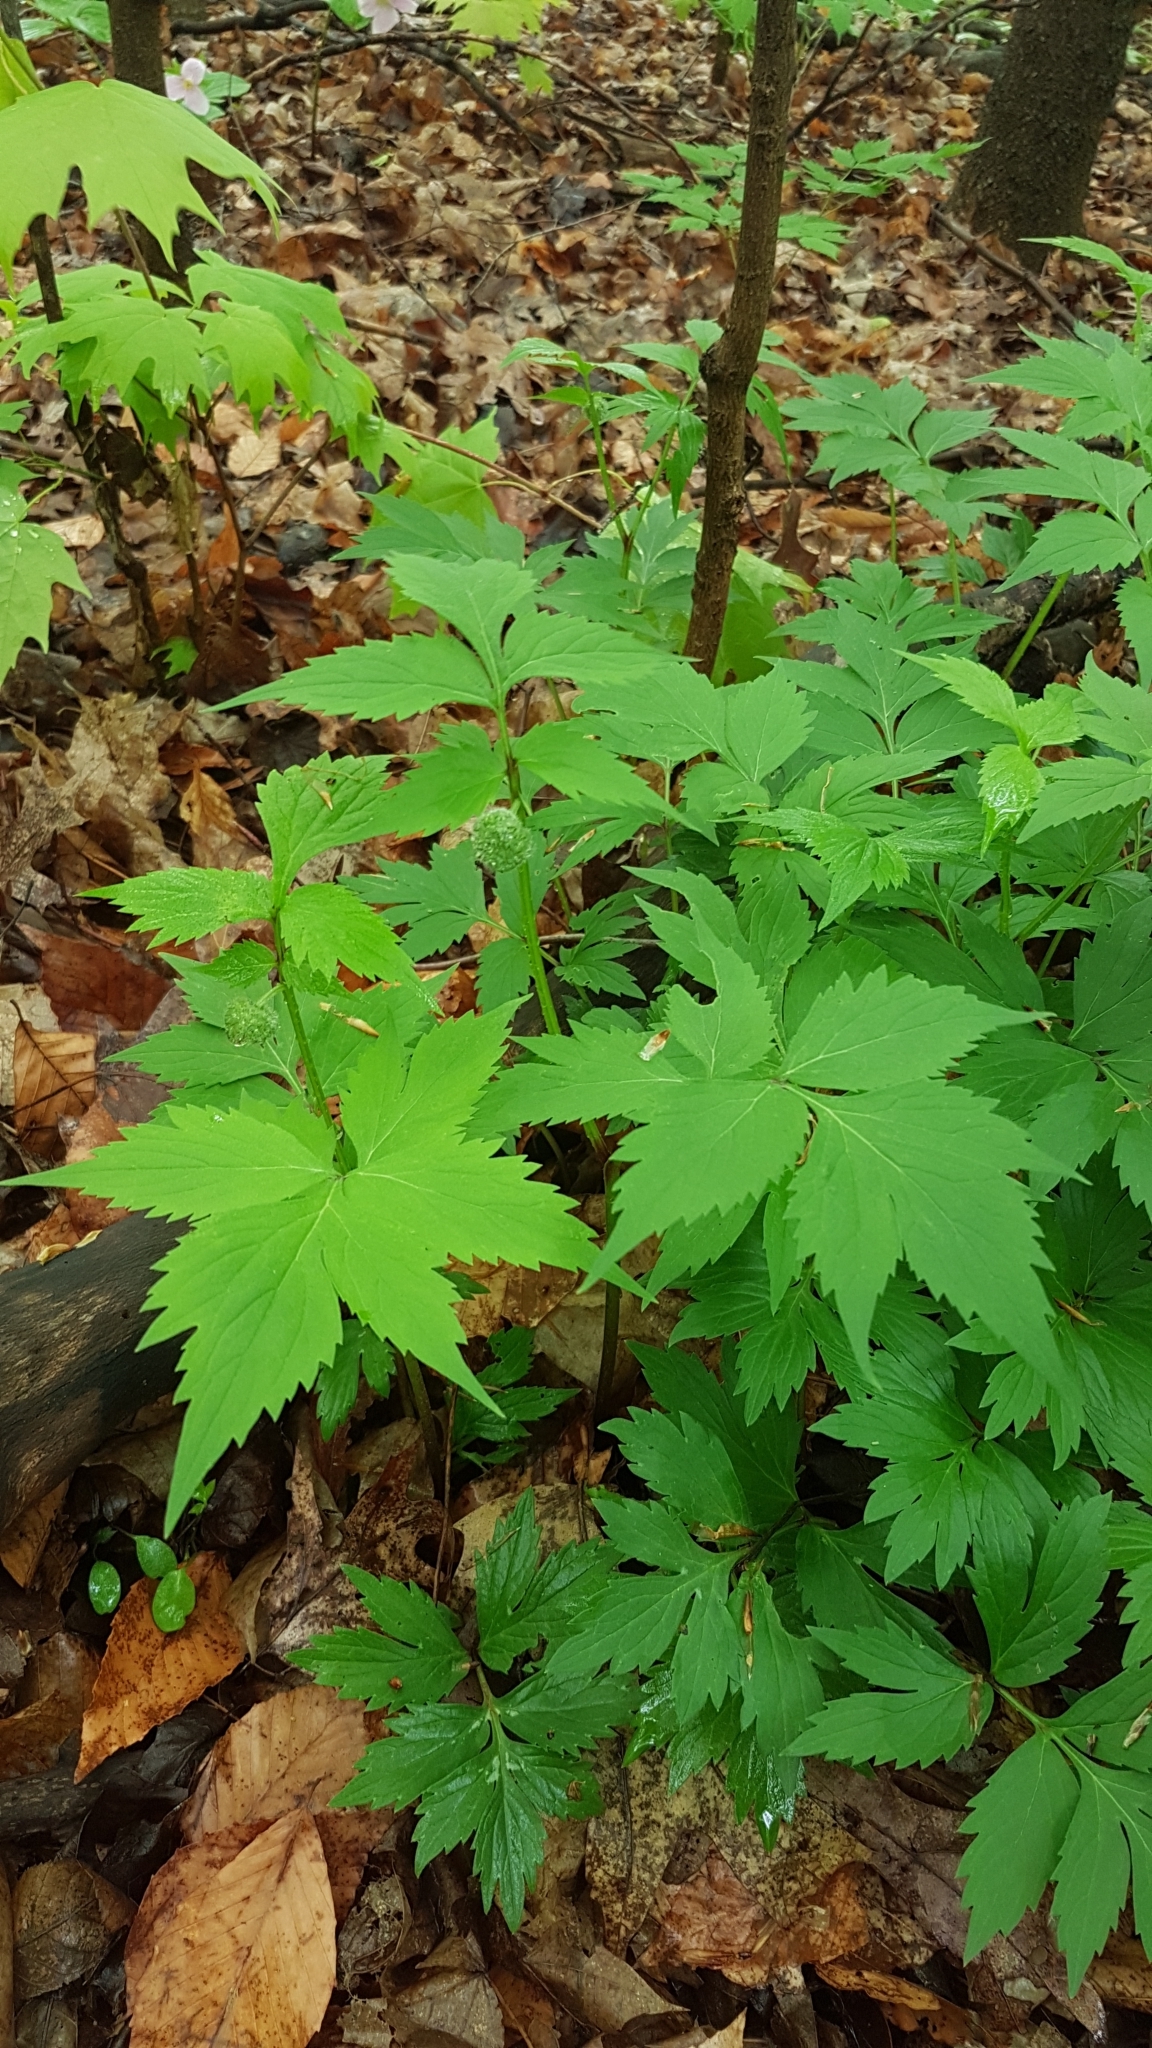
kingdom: Plantae
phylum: Tracheophyta
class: Magnoliopsida
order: Boraginales
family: Hydrophyllaceae
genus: Hydrophyllum
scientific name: Hydrophyllum virginianum
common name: Virginia waterleaf
